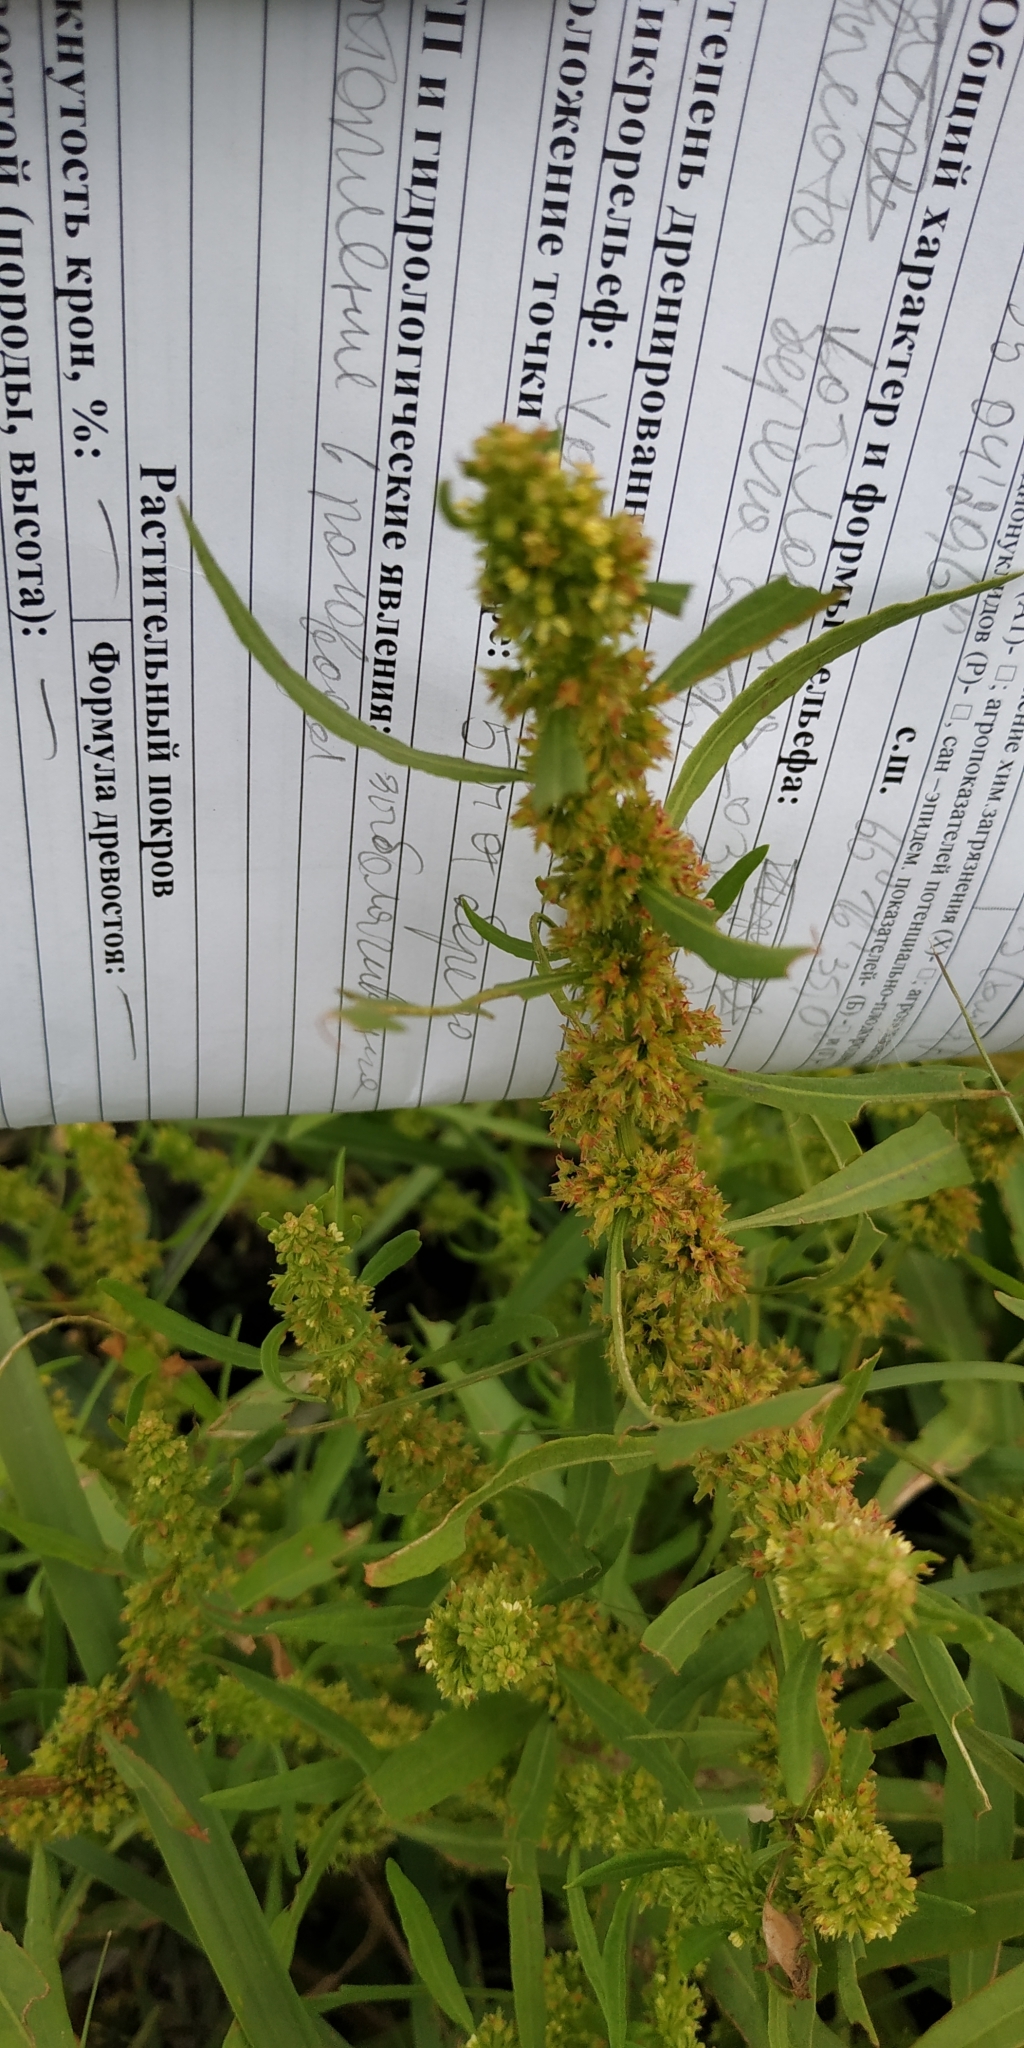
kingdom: Plantae
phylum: Tracheophyta
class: Magnoliopsida
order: Caryophyllales
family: Polygonaceae
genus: Rumex
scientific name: Rumex maritimus
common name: Golden dock
